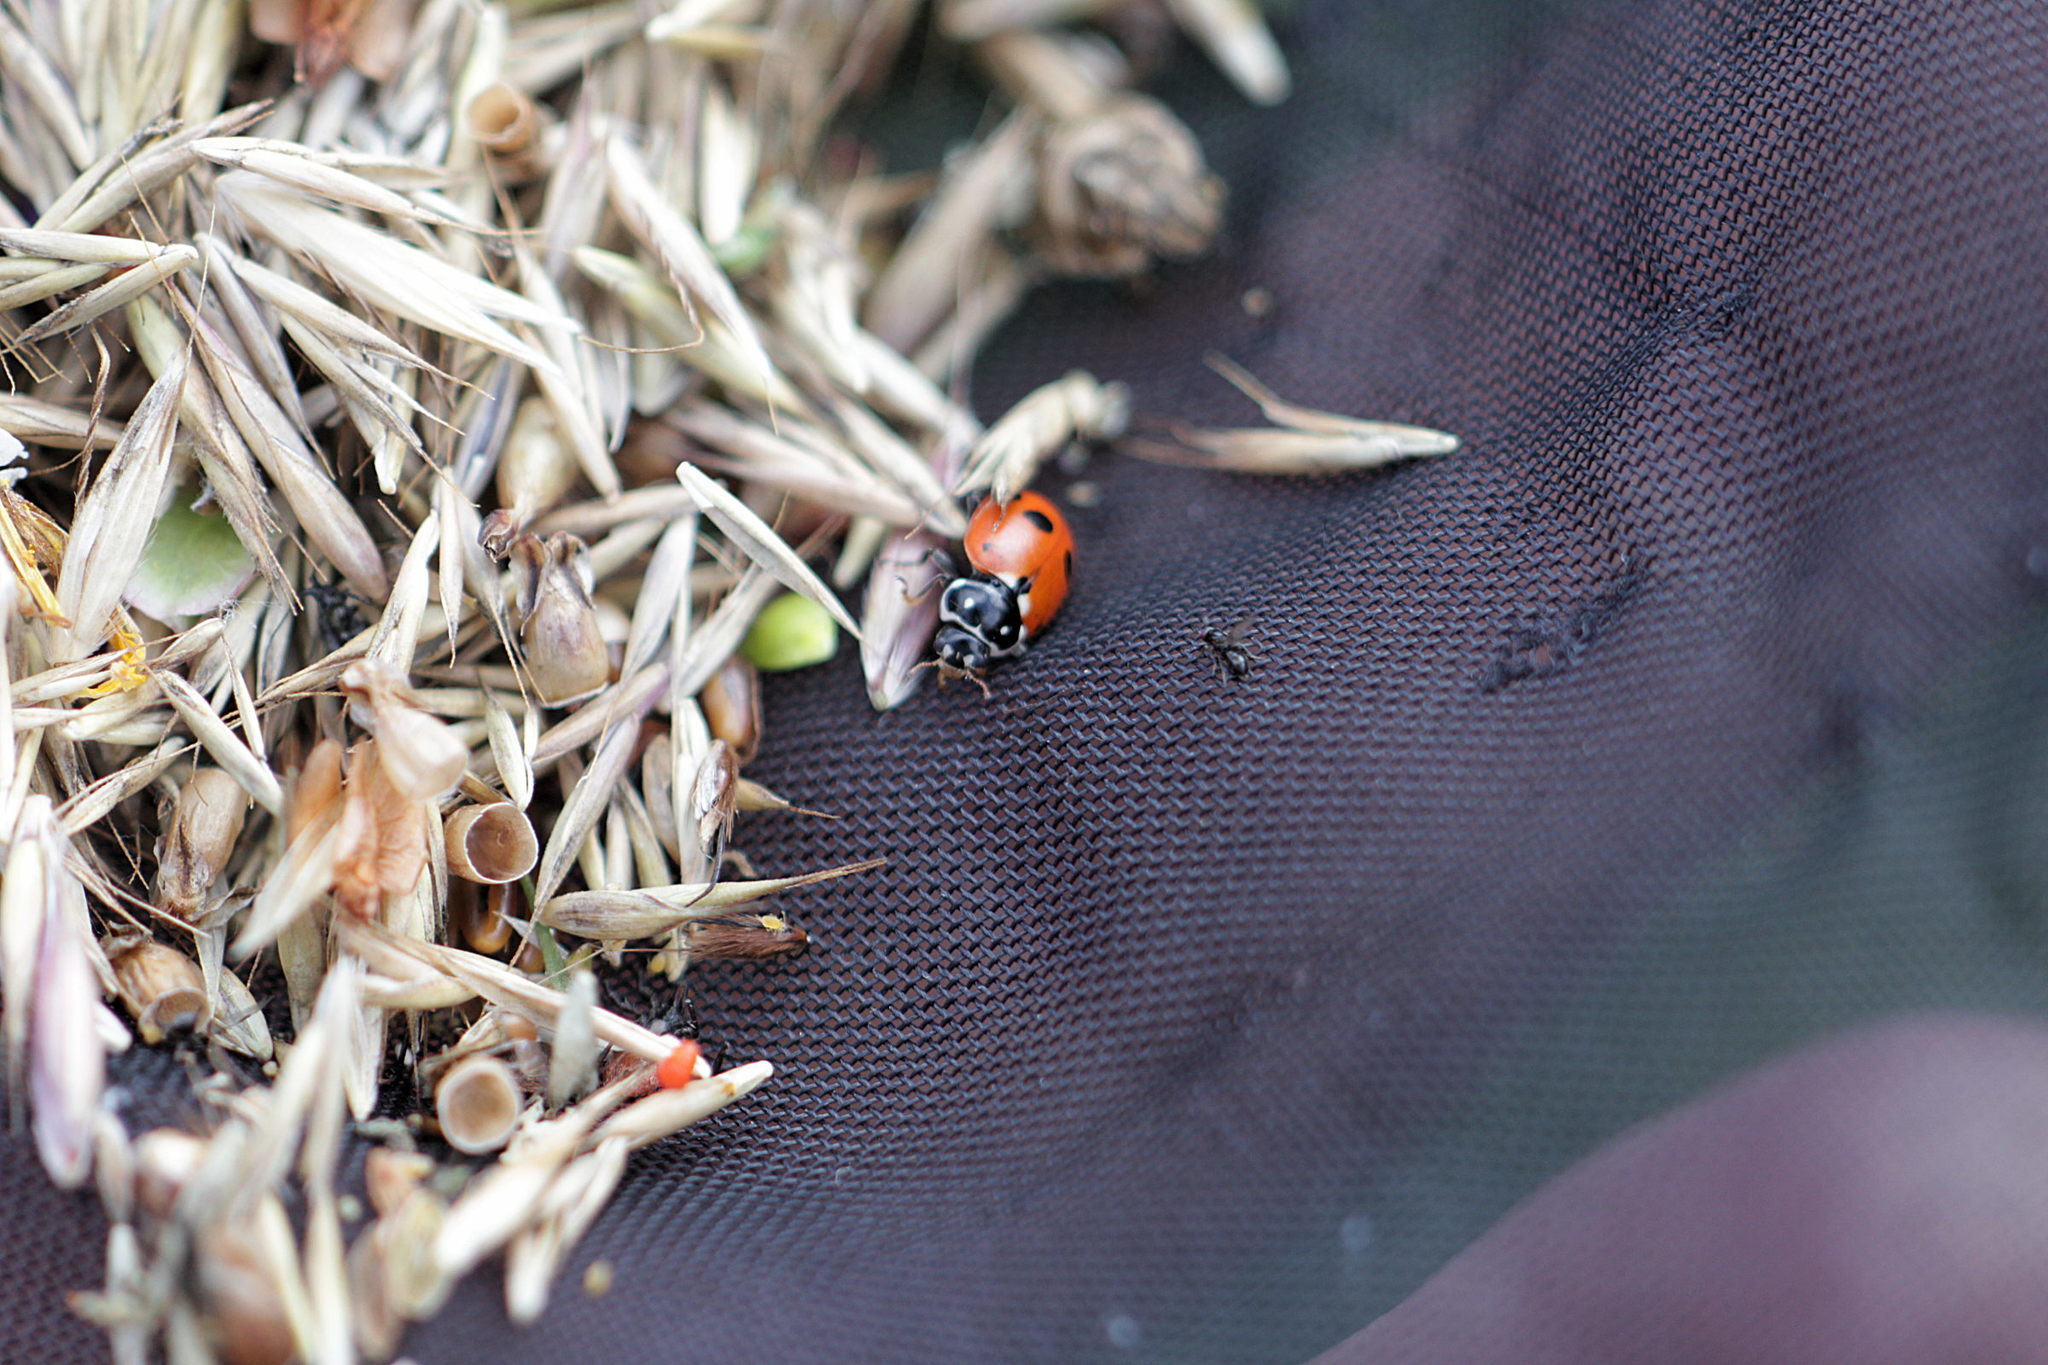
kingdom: Animalia
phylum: Arthropoda
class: Insecta
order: Coleoptera
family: Coccinellidae
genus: Hippodamia
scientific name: Hippodamia variegata
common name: Ladybird beetle
